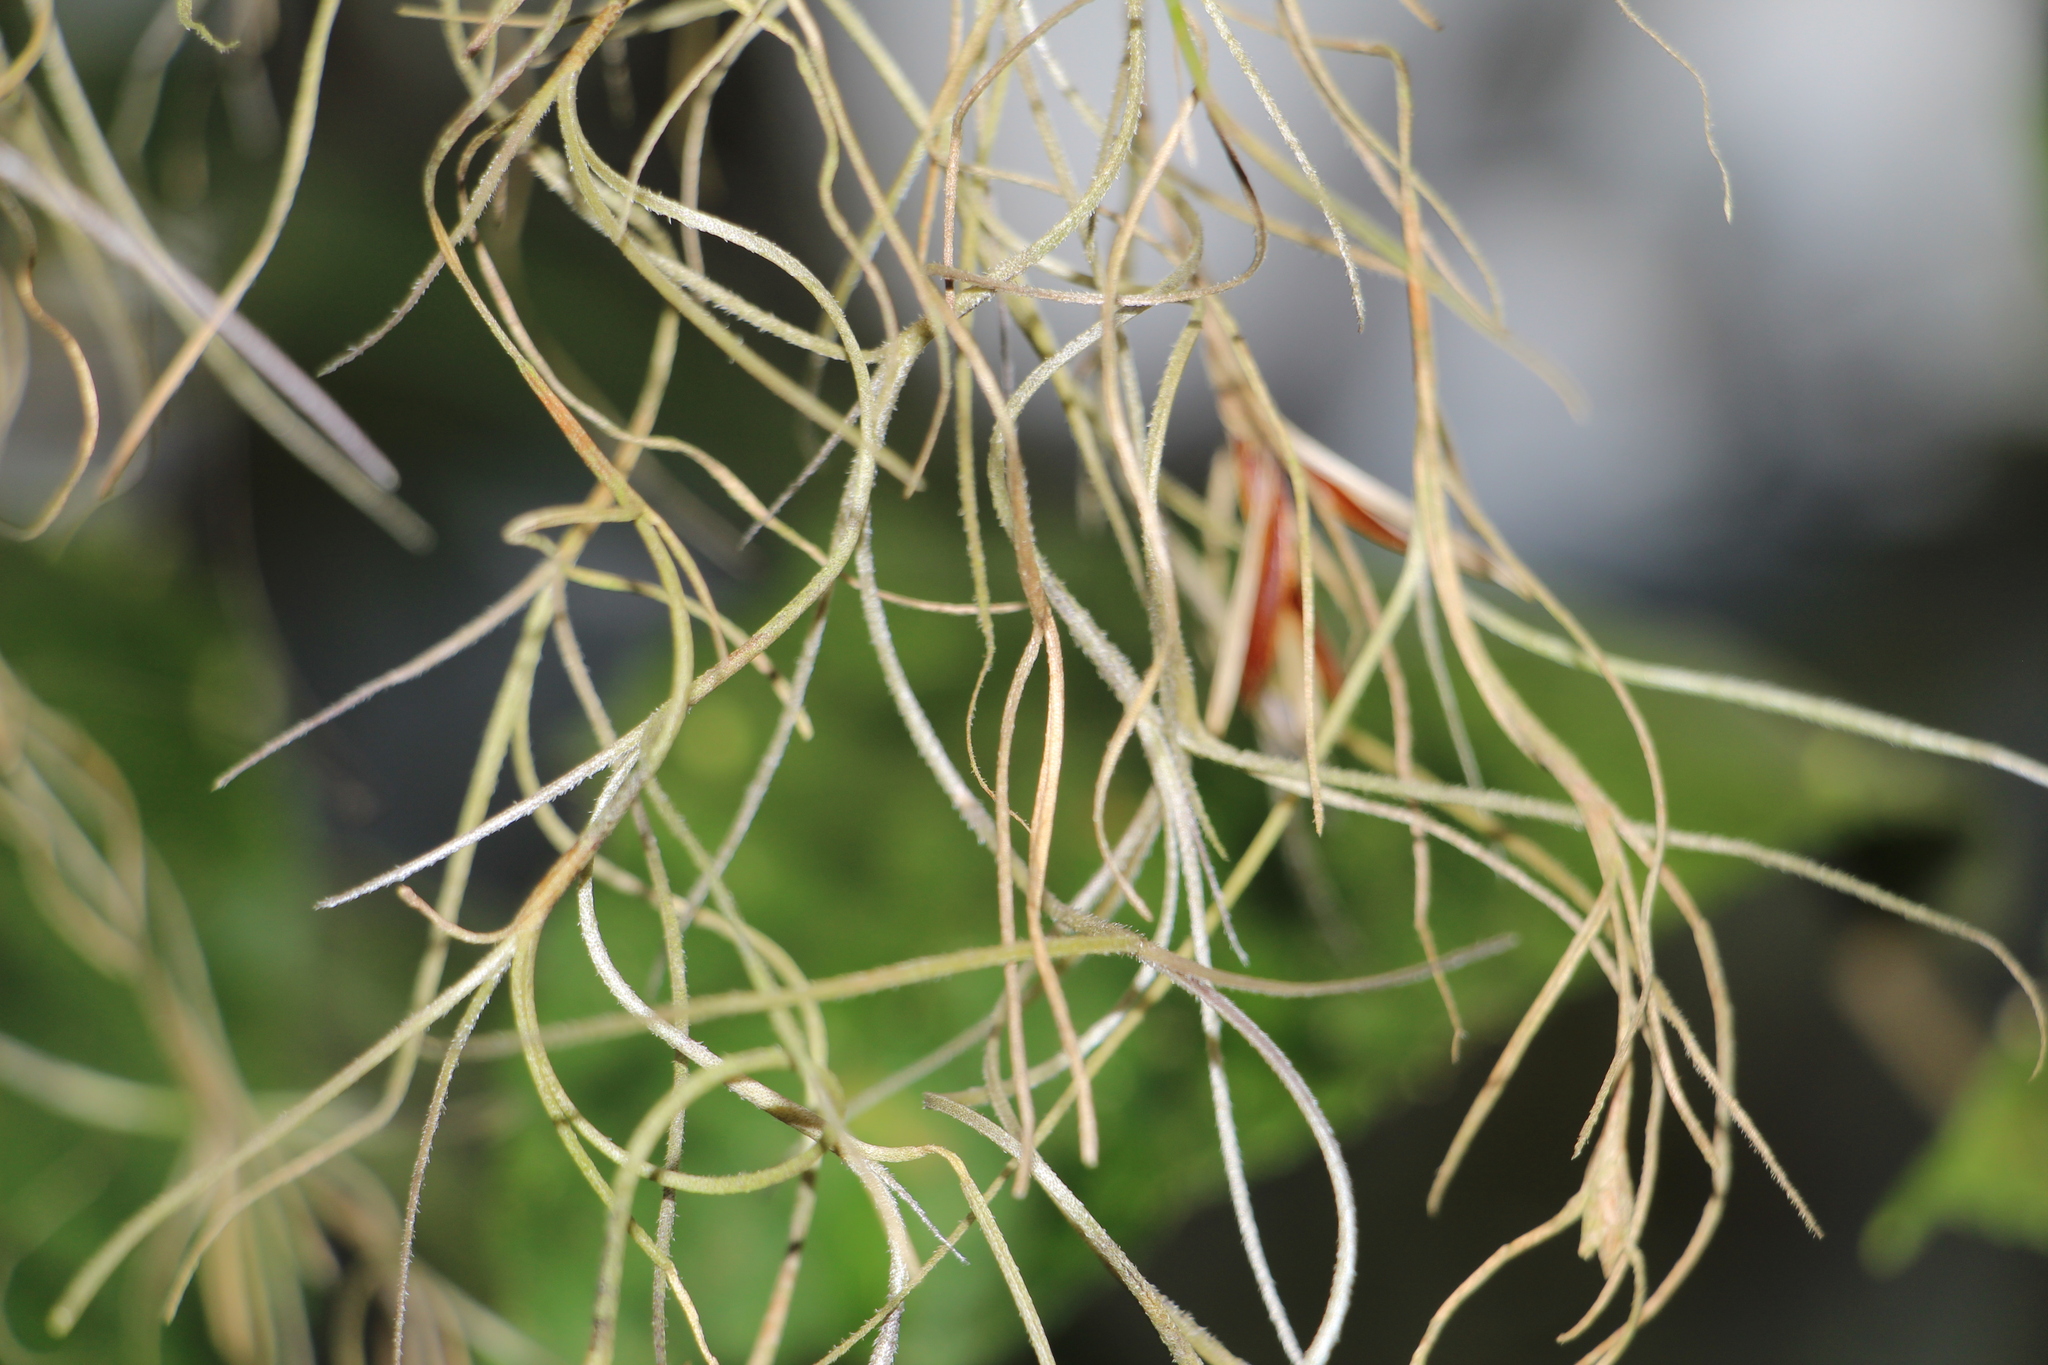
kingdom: Plantae
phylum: Tracheophyta
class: Liliopsida
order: Poales
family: Bromeliaceae
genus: Tillandsia
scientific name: Tillandsia usneoides
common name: Spanish moss
